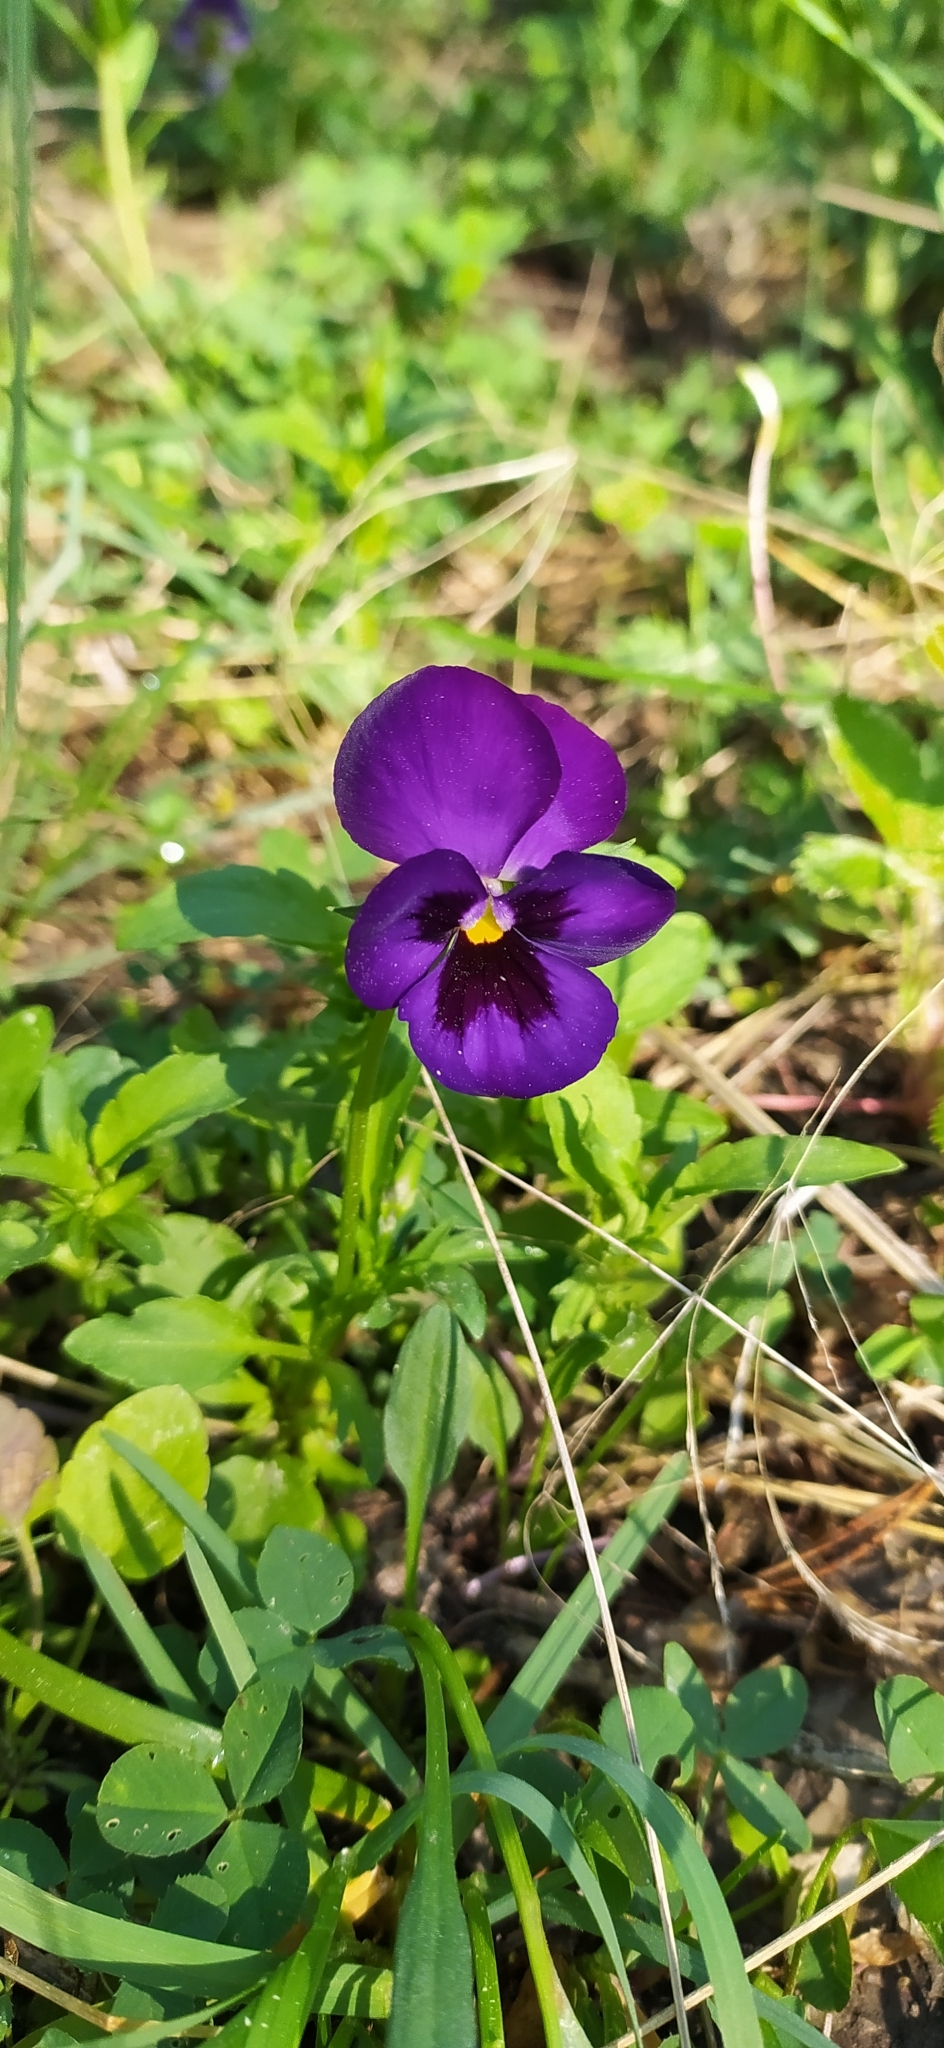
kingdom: Plantae
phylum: Tracheophyta
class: Magnoliopsida
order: Malpighiales
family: Violaceae
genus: Viola
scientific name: Viola wittrockiana
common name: Garden pansy
